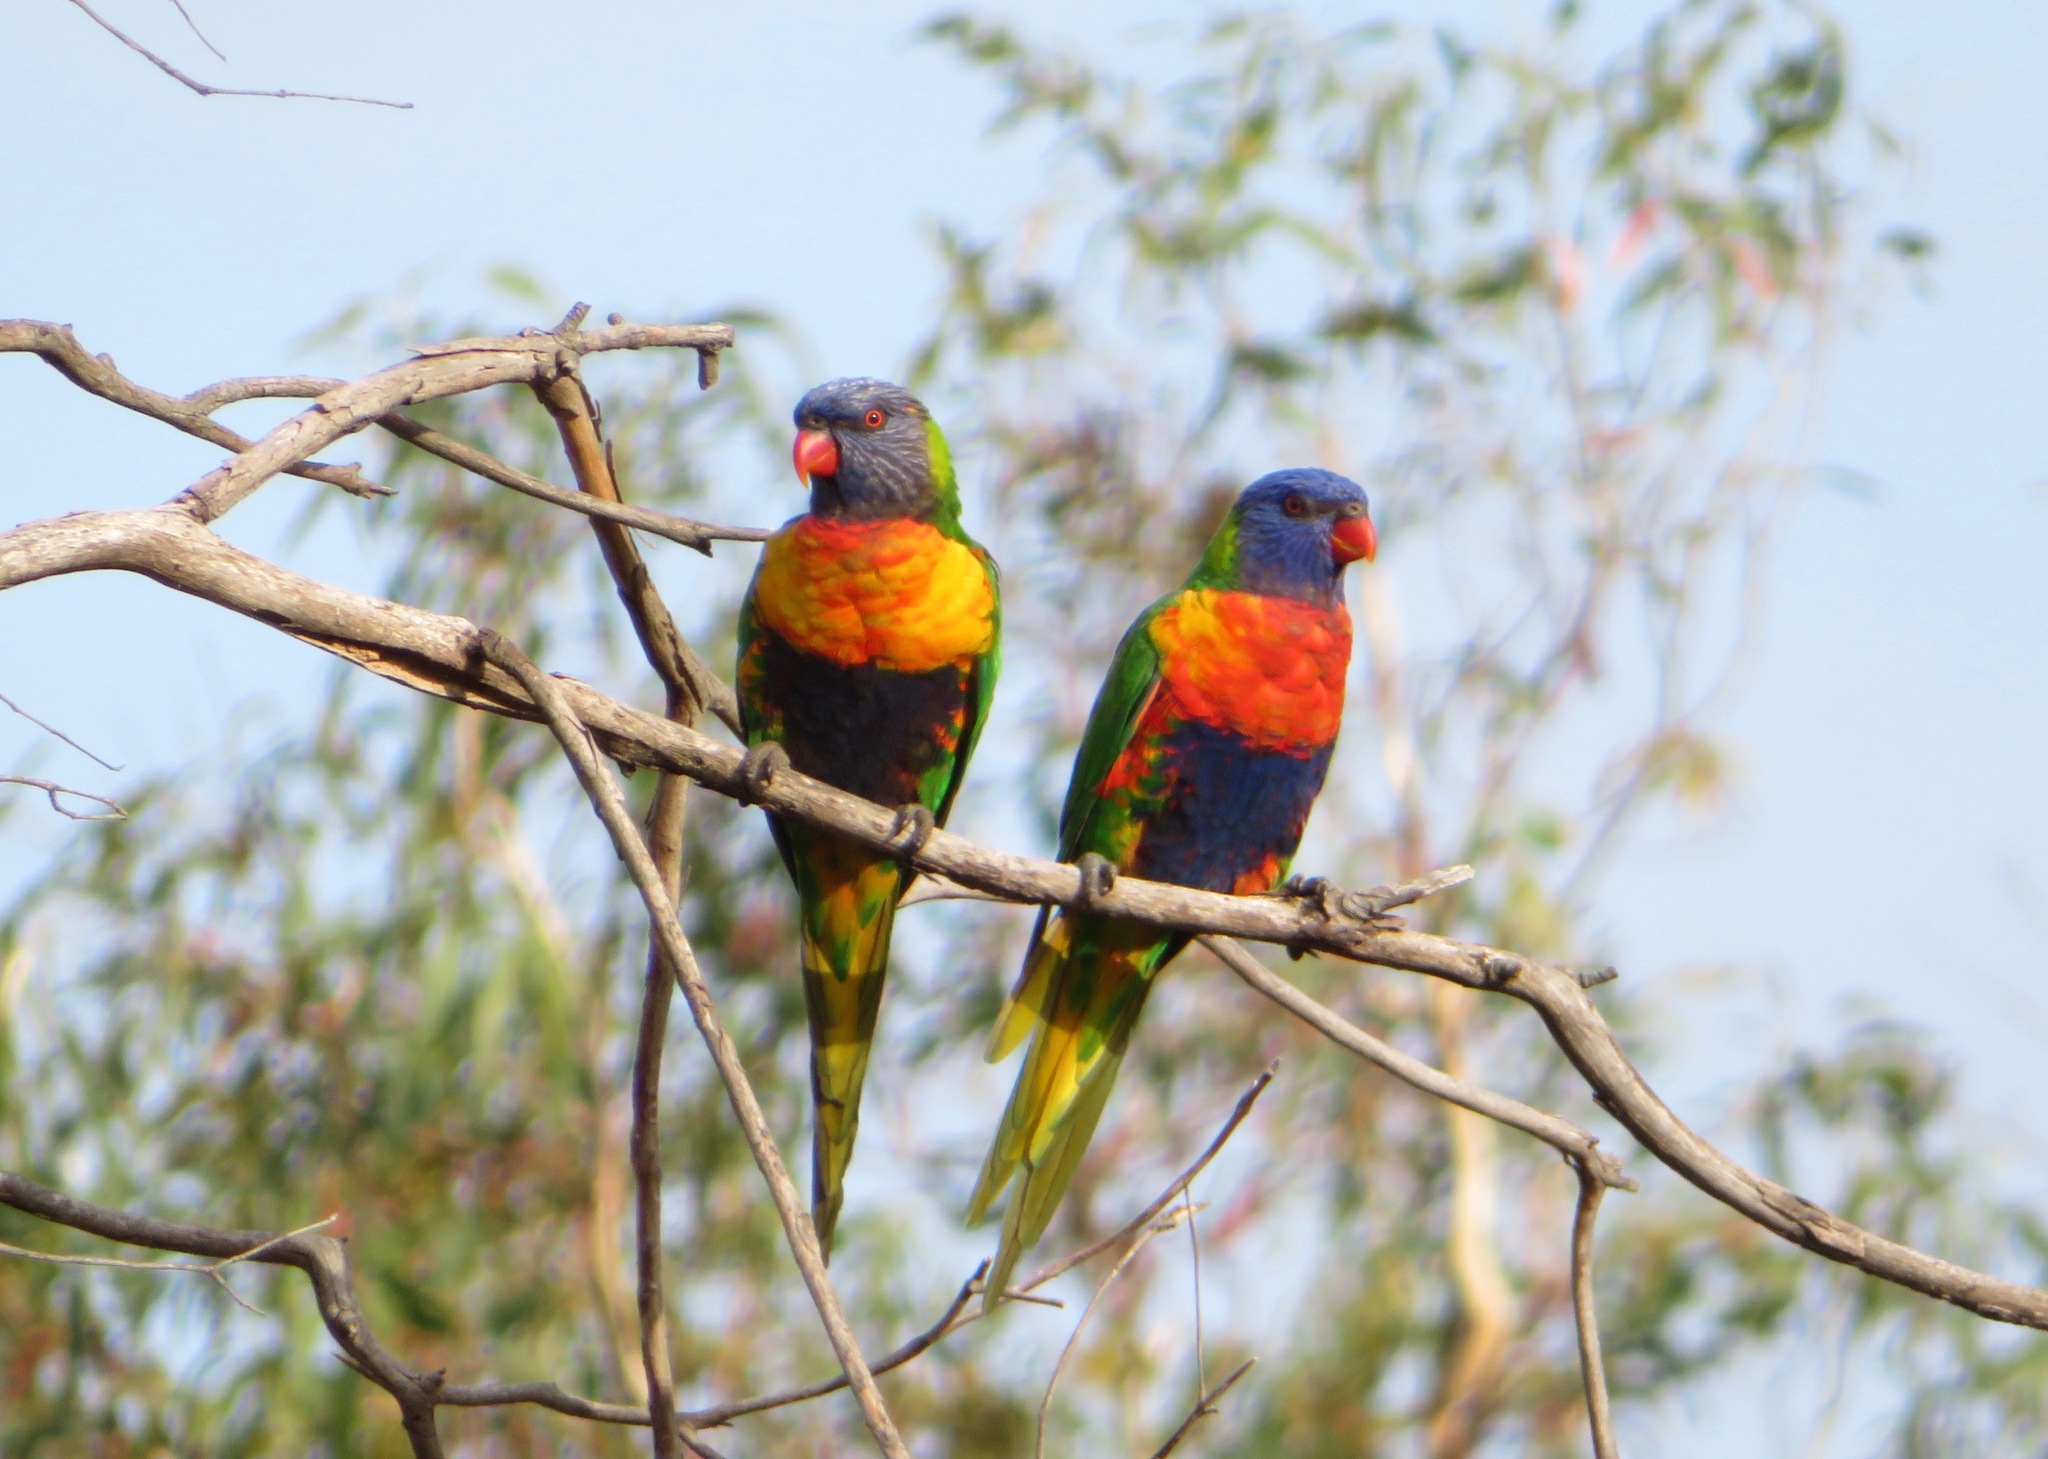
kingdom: Animalia
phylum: Chordata
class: Aves
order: Psittaciformes
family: Psittacidae
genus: Trichoglossus
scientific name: Trichoglossus haematodus
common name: Coconut lorikeet
